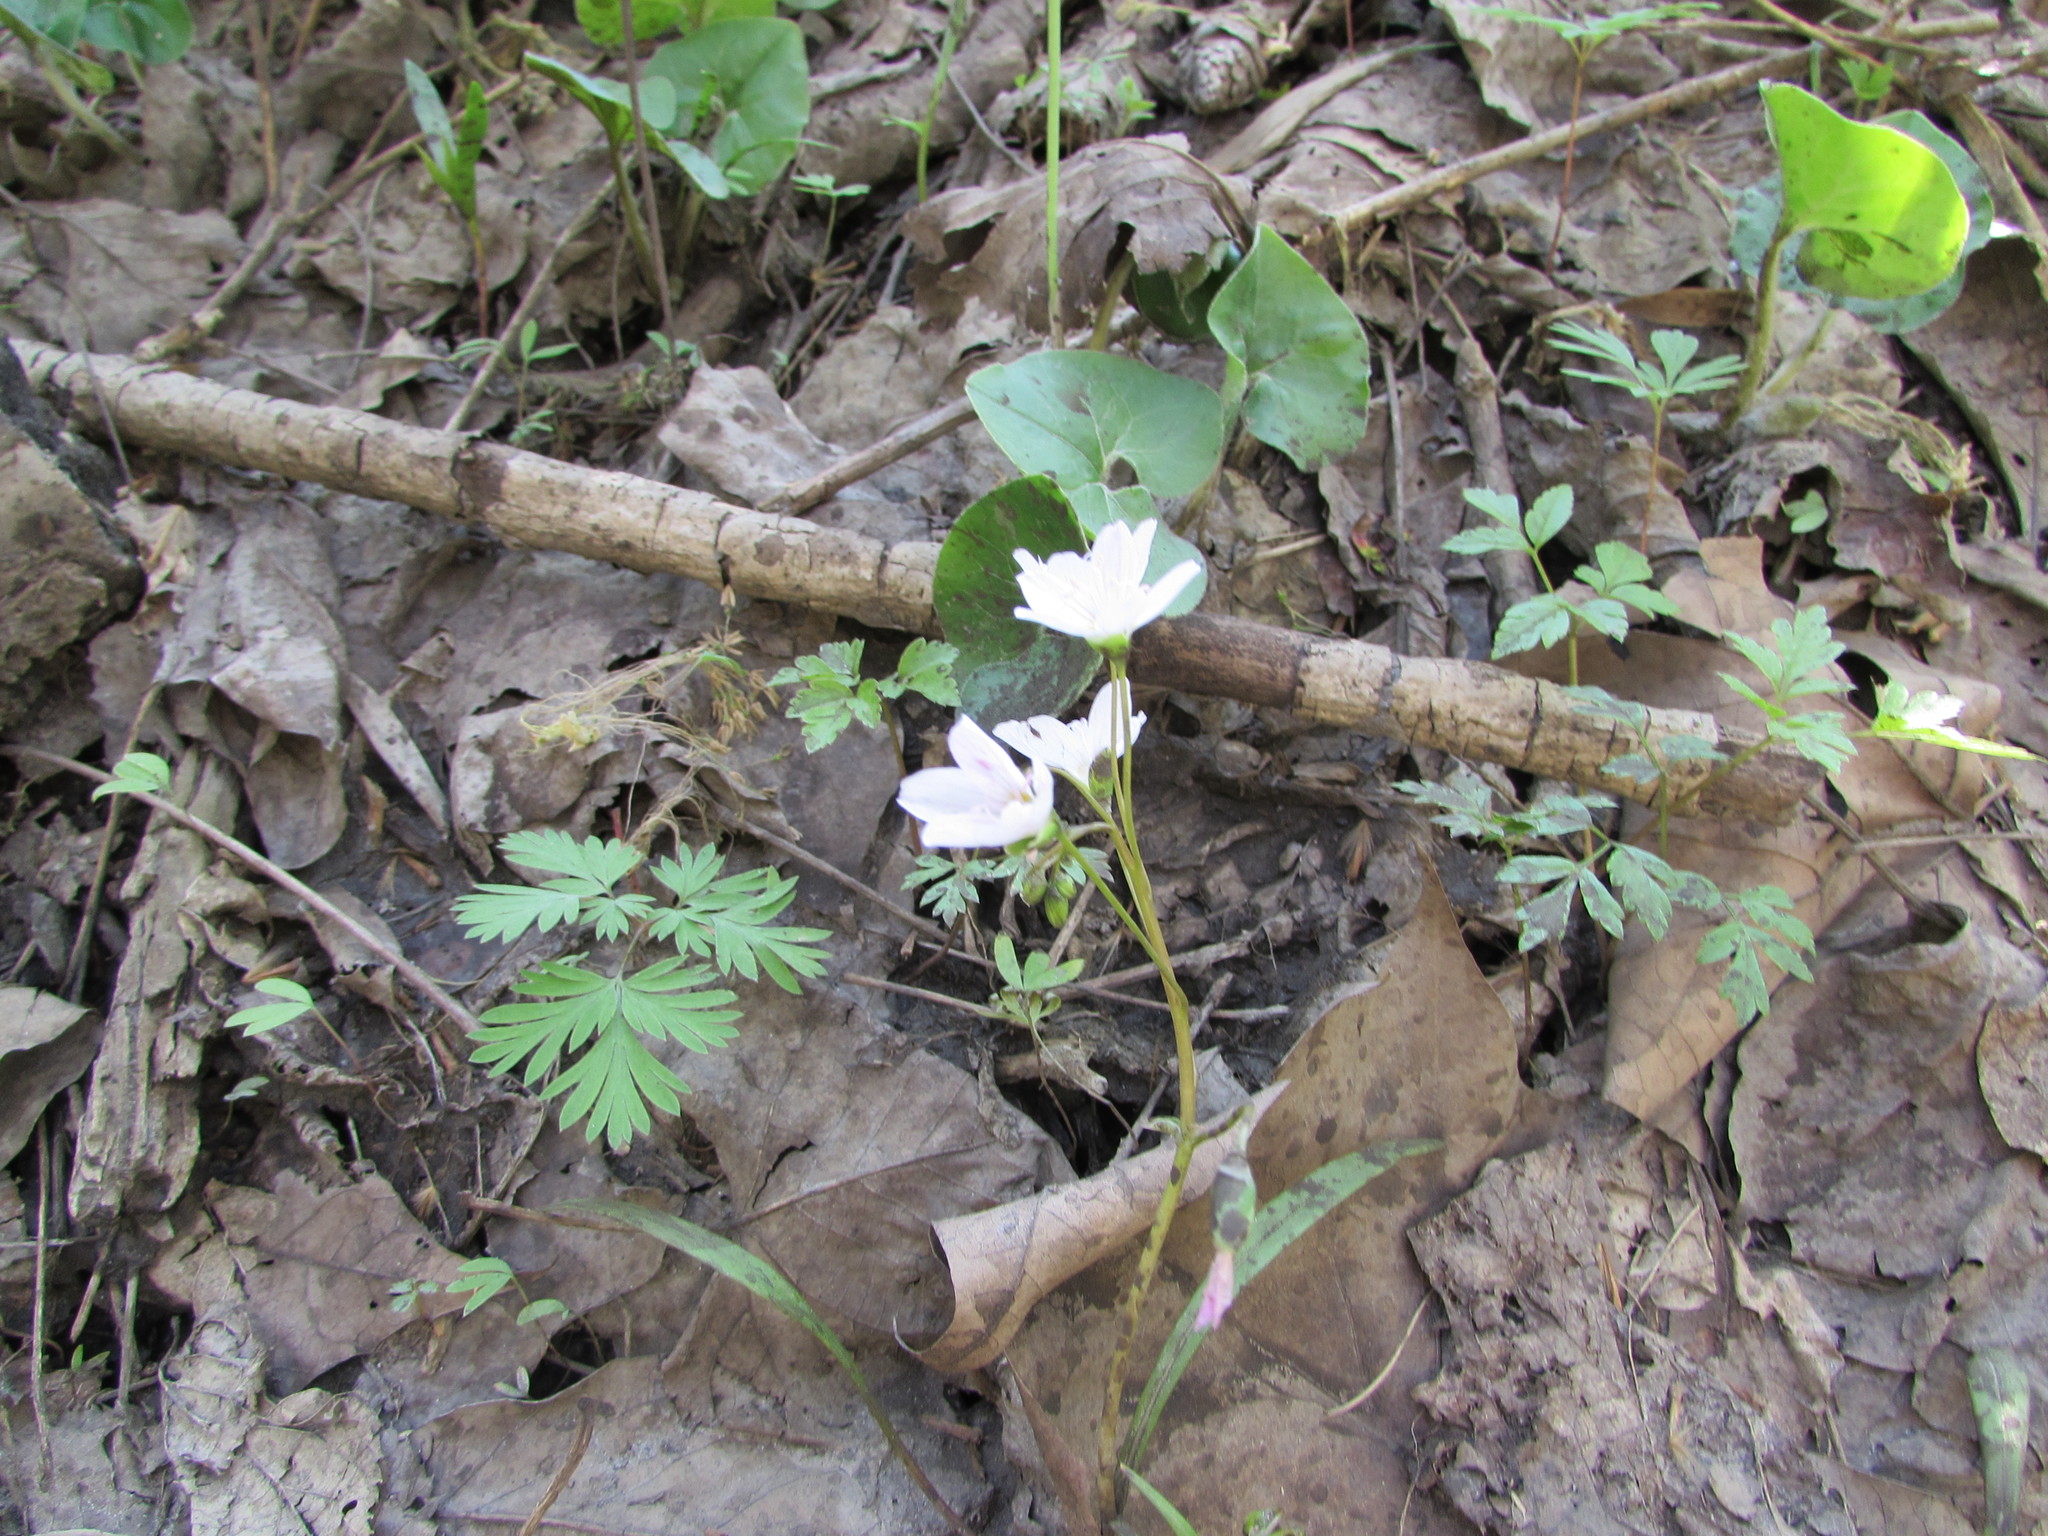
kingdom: Plantae
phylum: Tracheophyta
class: Magnoliopsida
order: Caryophyllales
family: Montiaceae
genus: Claytonia
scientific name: Claytonia virginica
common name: Virginia springbeauty
